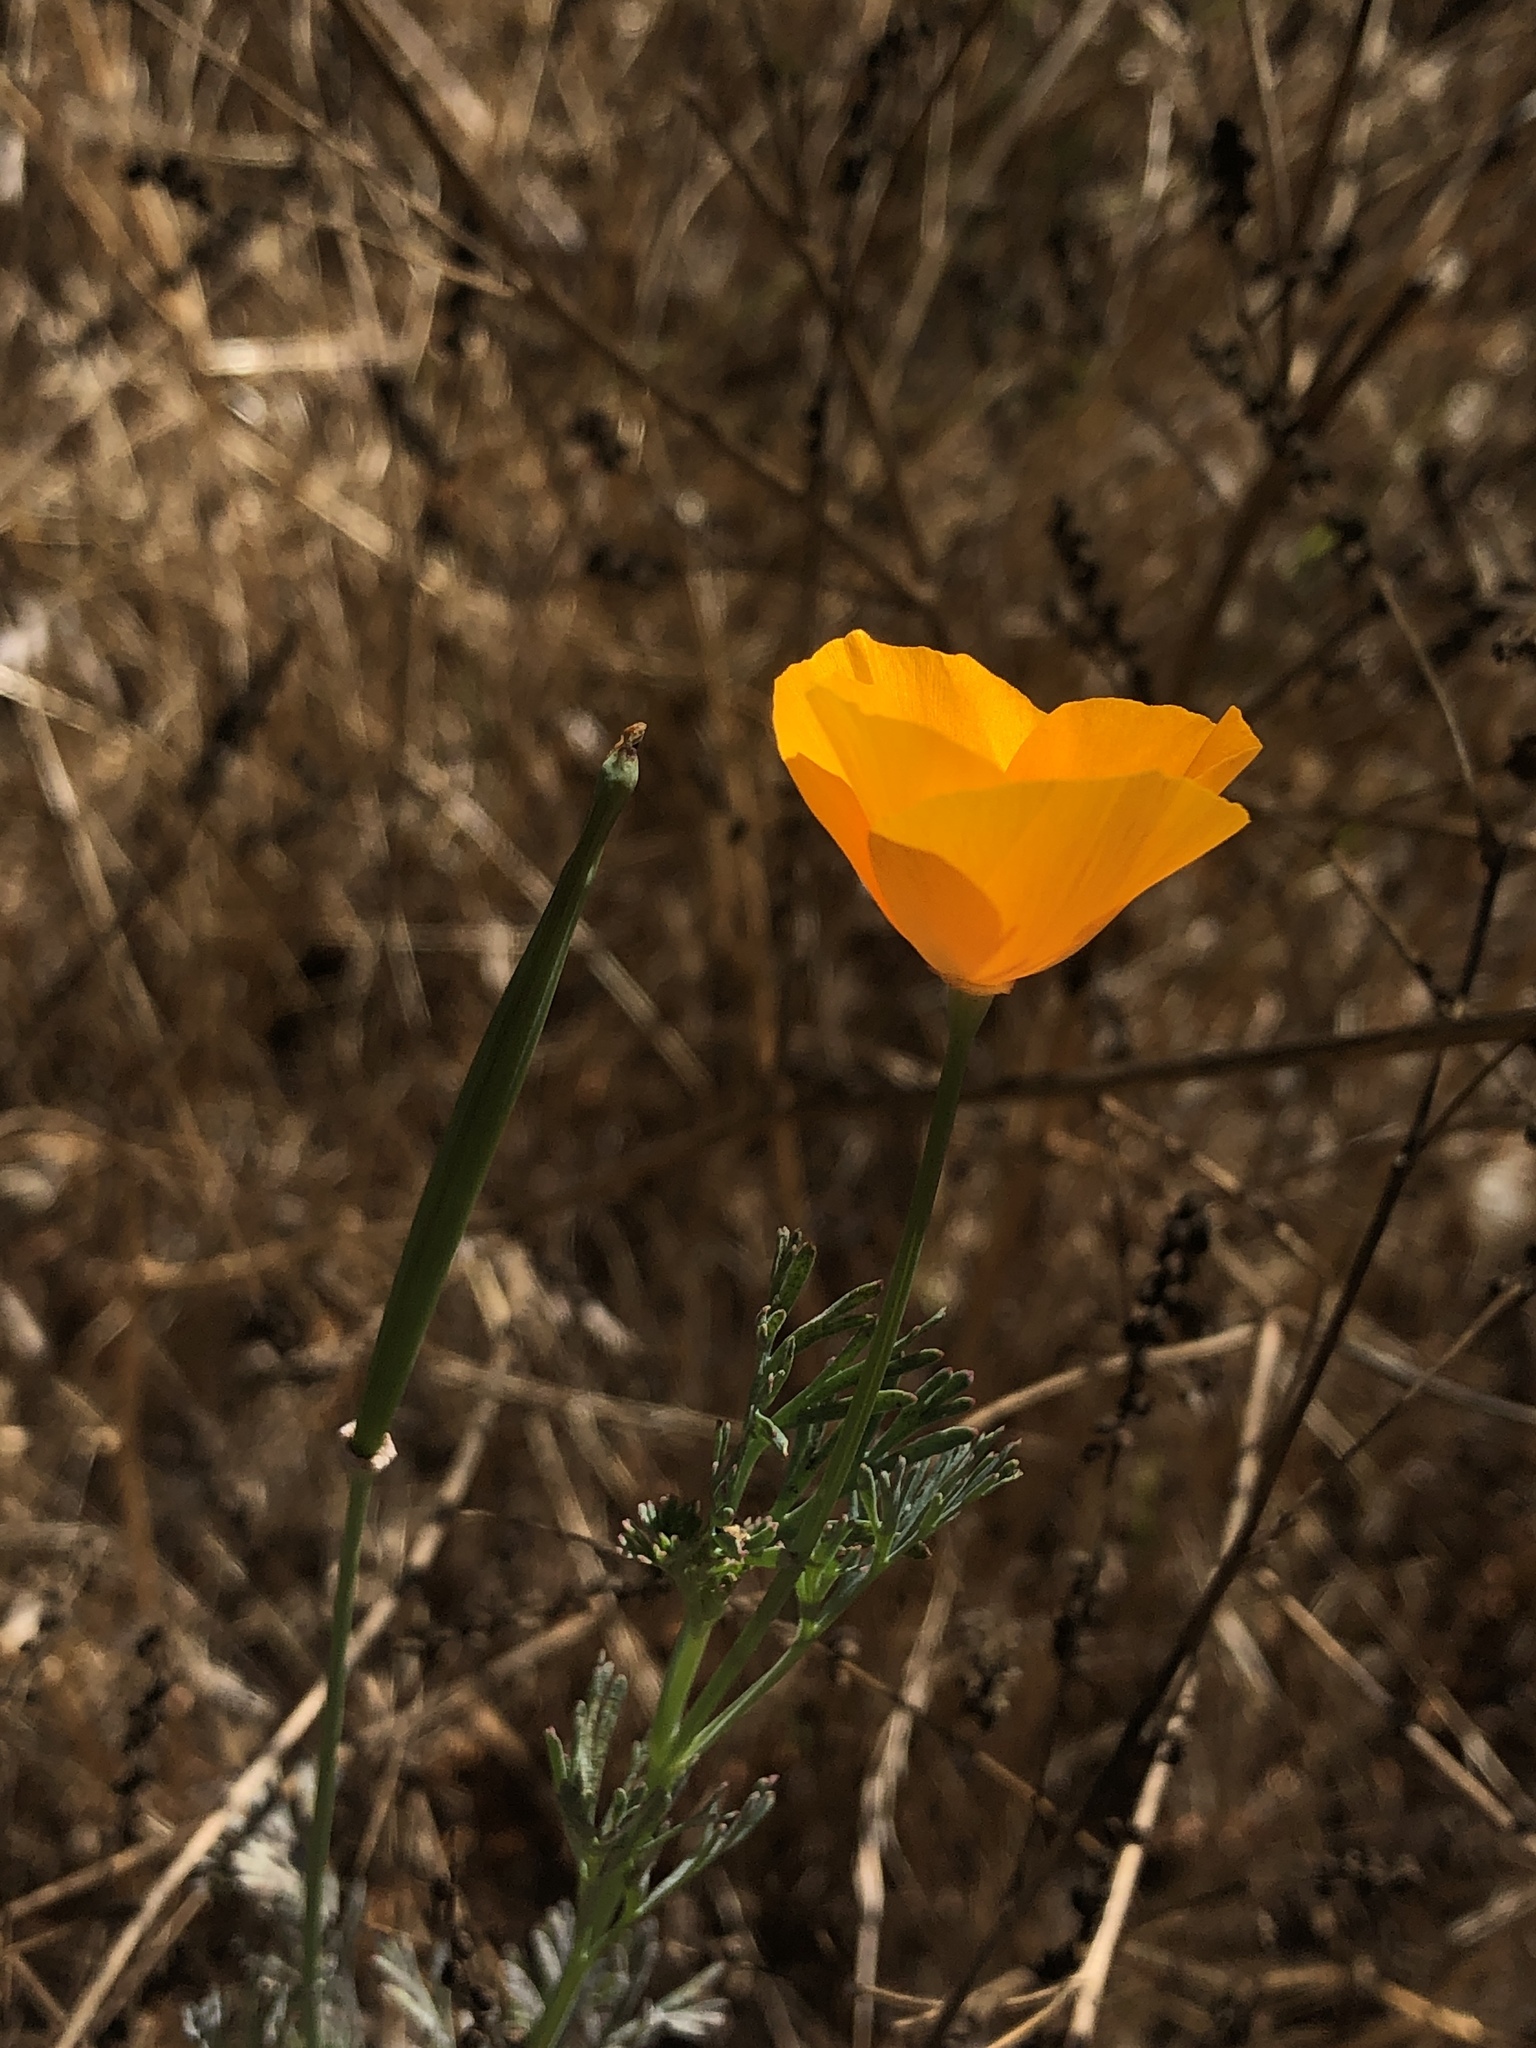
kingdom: Plantae
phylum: Tracheophyta
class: Magnoliopsida
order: Ranunculales
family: Papaveraceae
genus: Eschscholzia
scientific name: Eschscholzia californica
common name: California poppy
